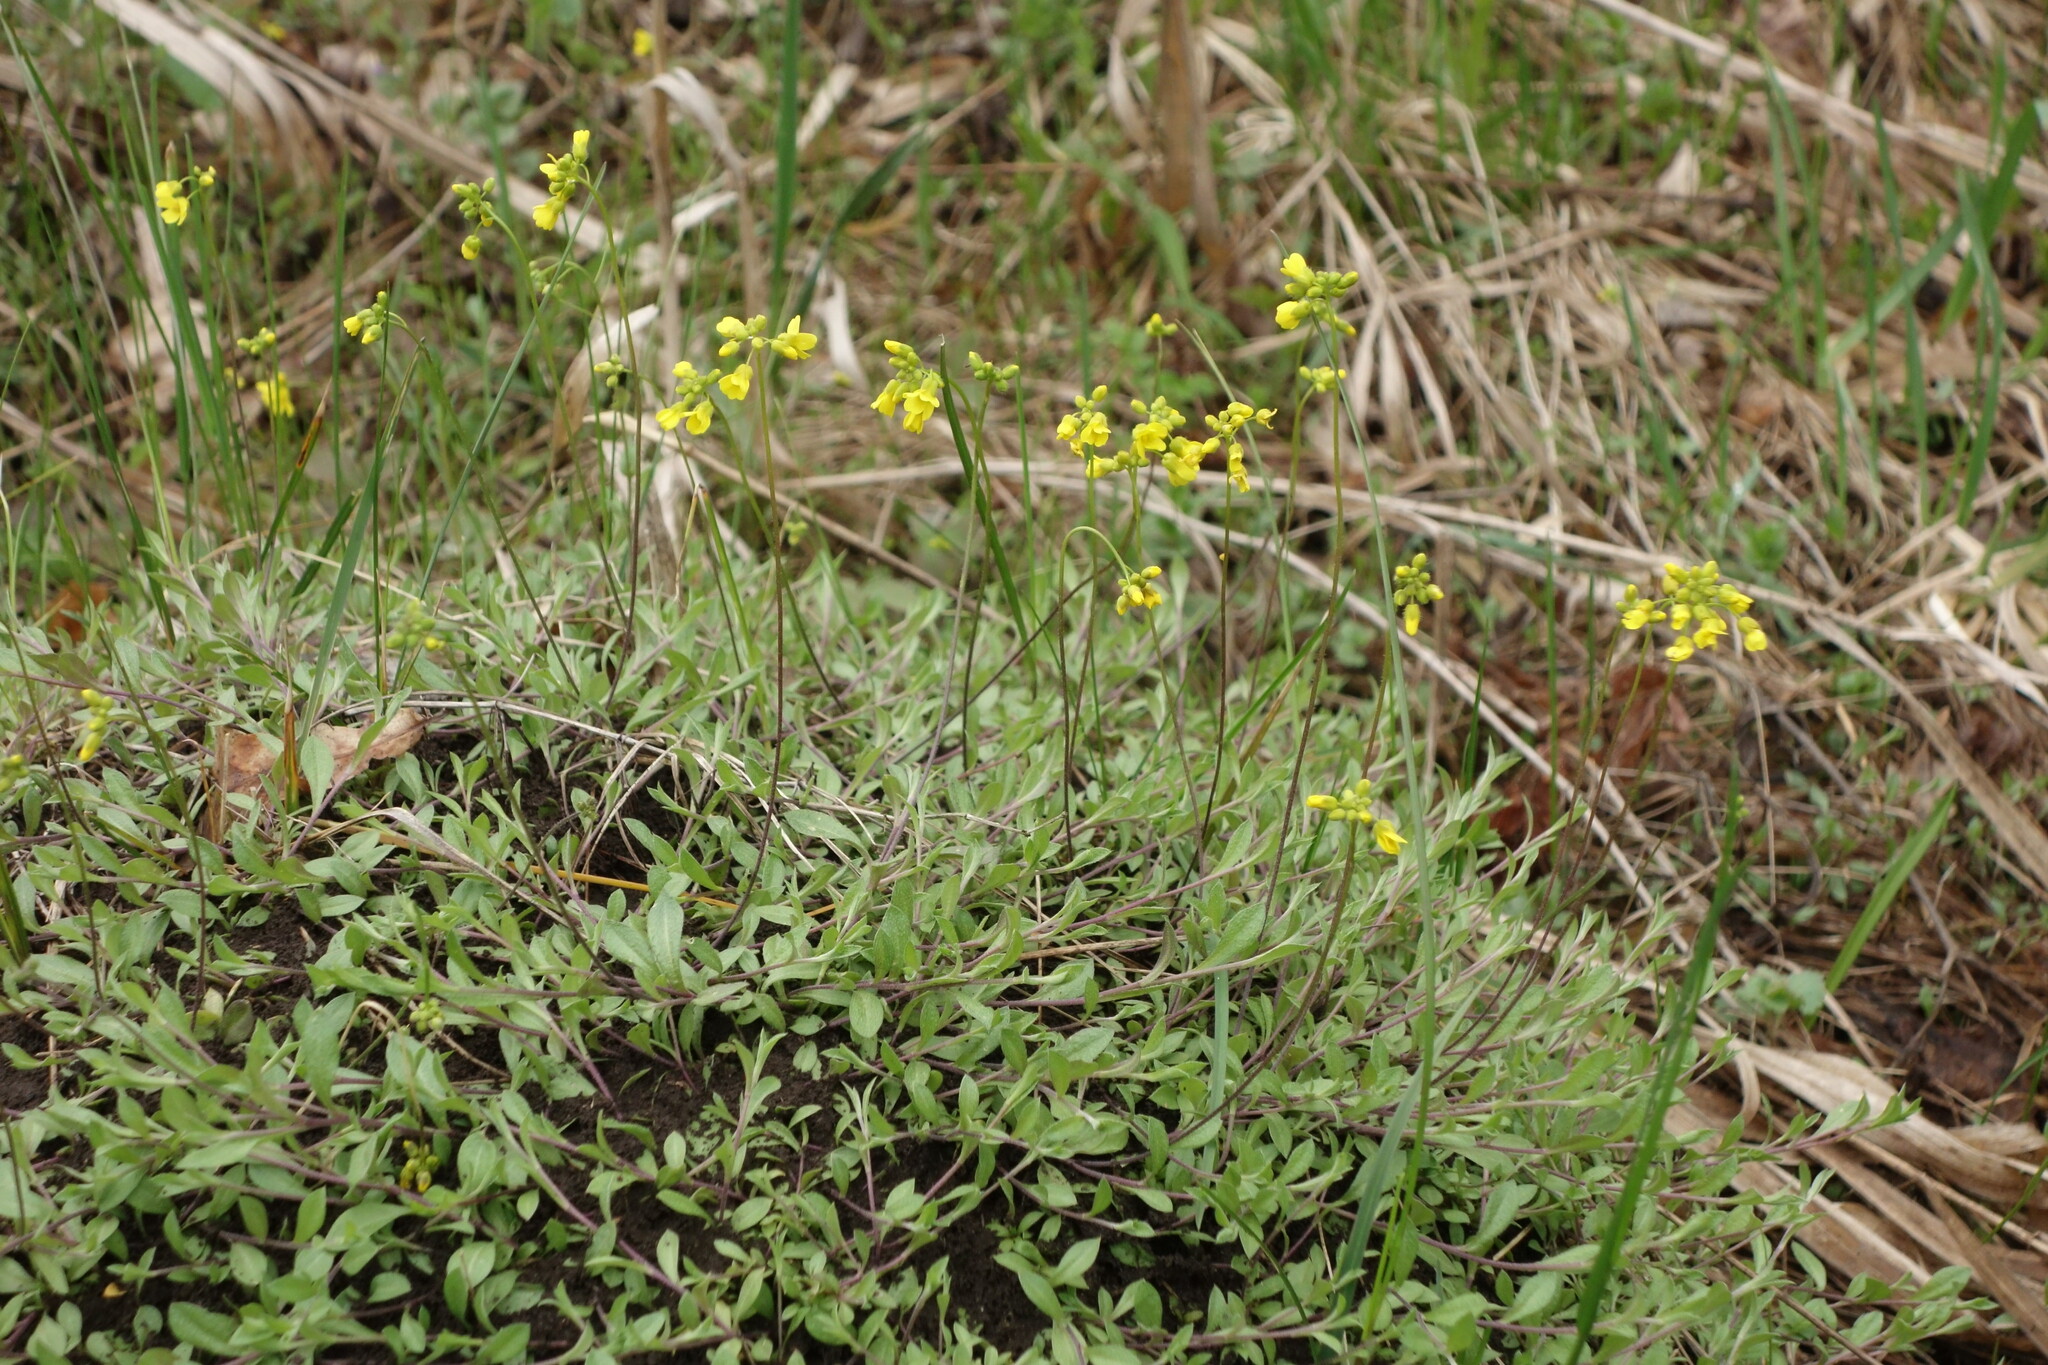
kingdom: Plantae
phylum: Tracheophyta
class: Magnoliopsida
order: Brassicales
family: Brassicaceae
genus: Draba
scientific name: Draba sibirica
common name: Siberian draba
